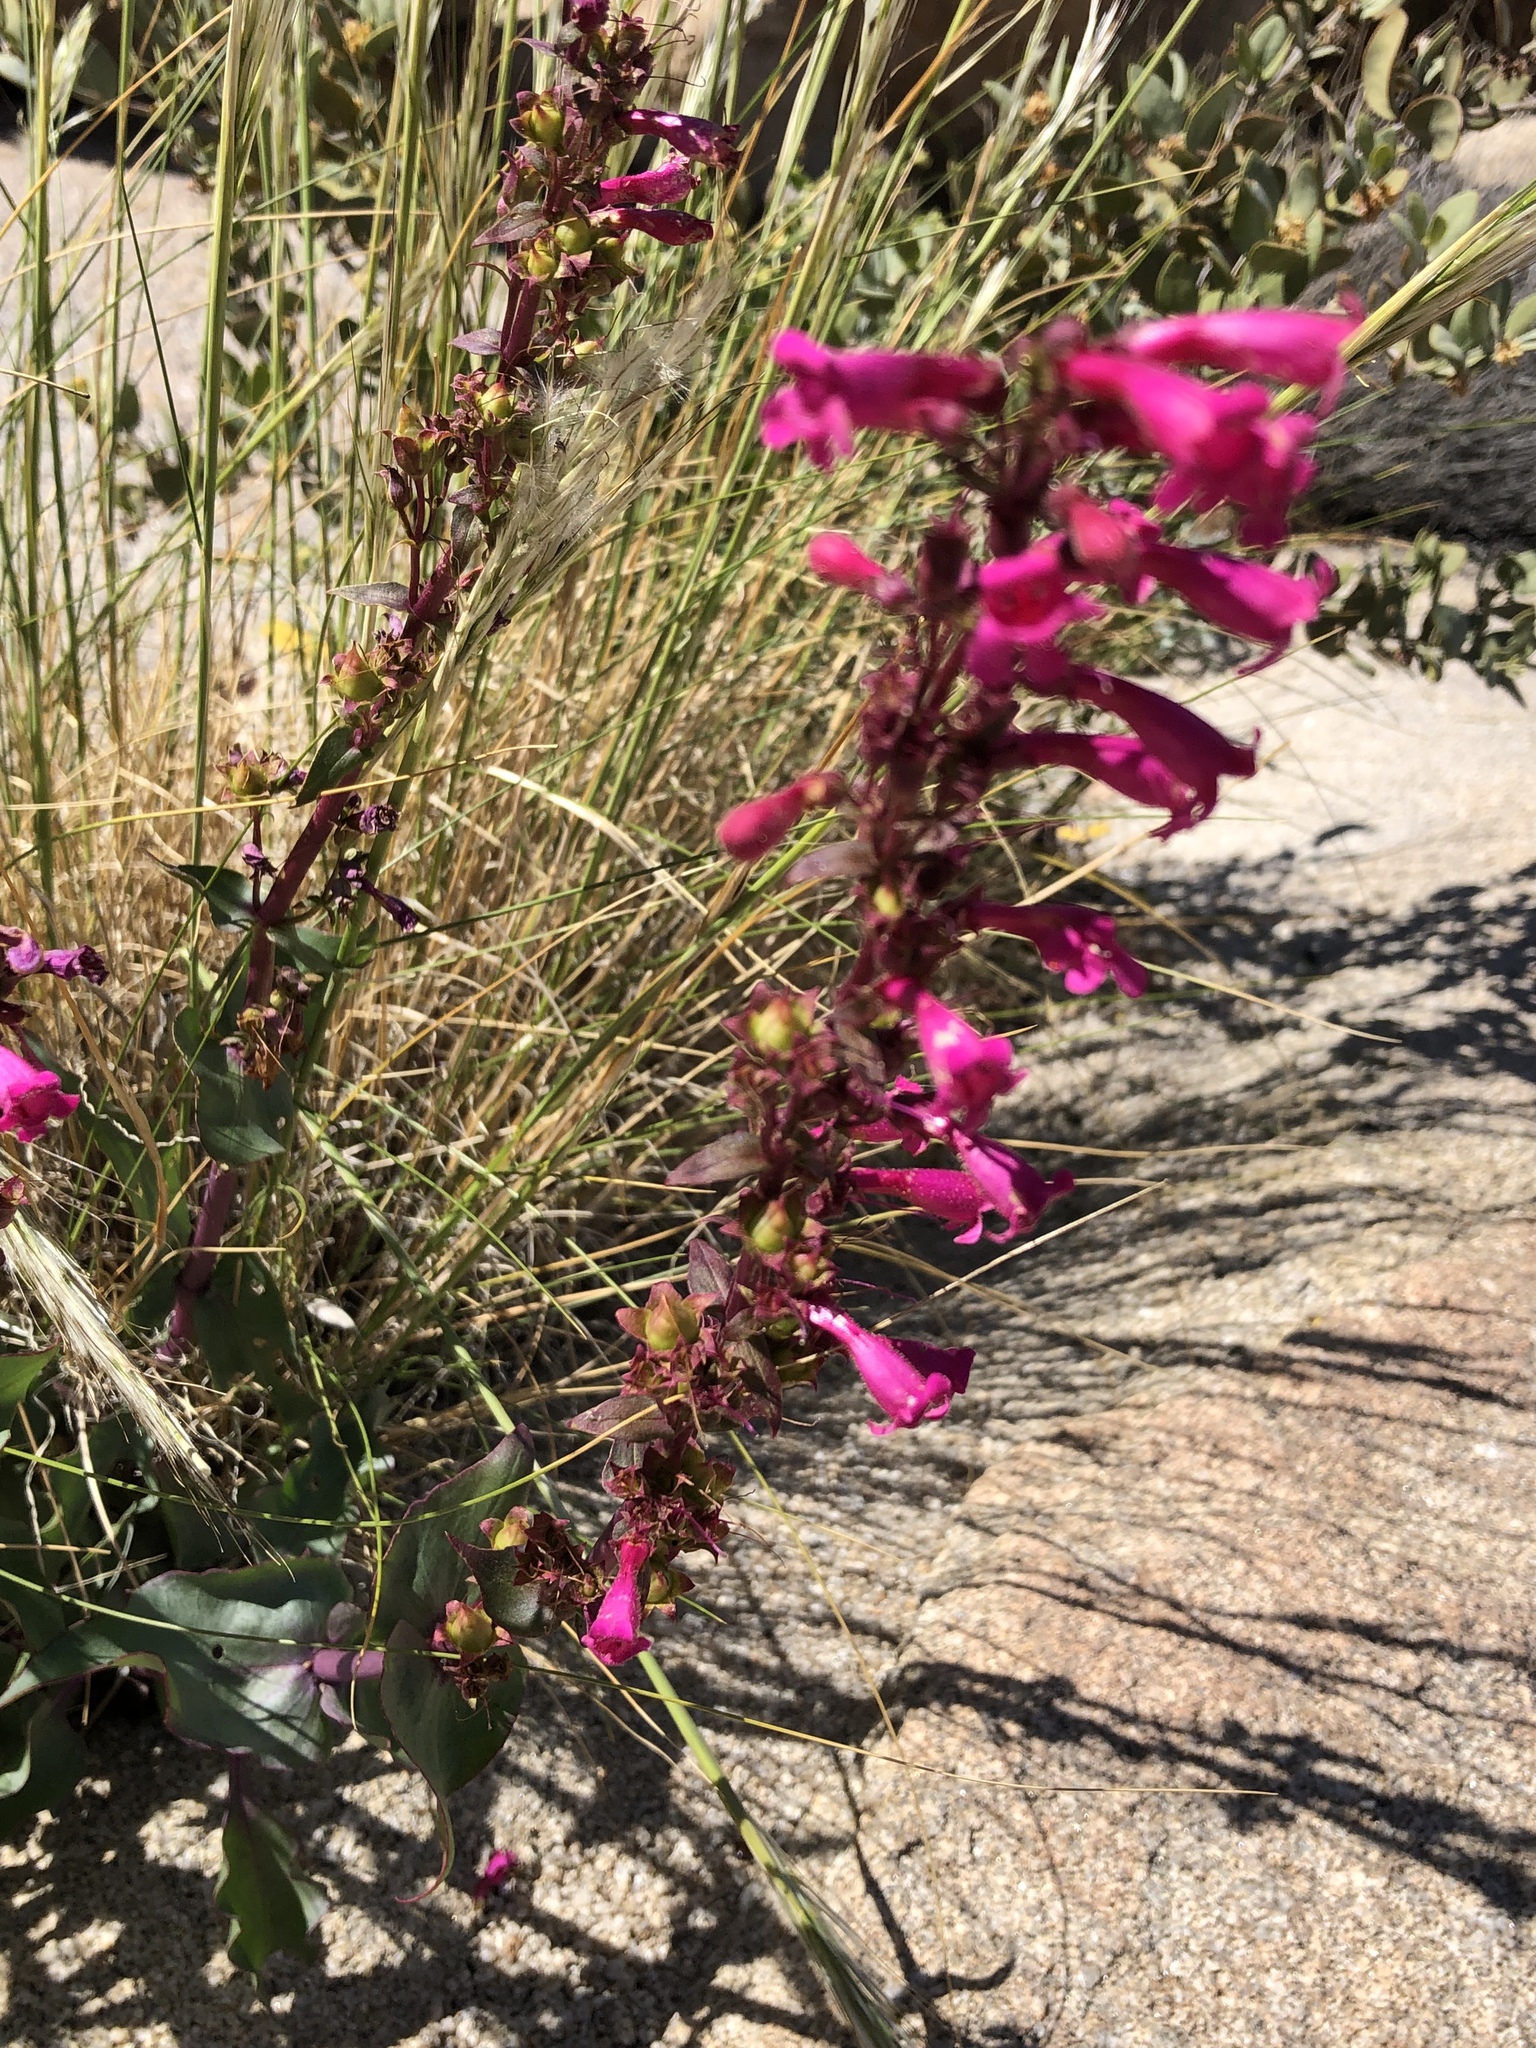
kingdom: Plantae
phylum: Tracheophyta
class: Magnoliopsida
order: Lamiales
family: Plantaginaceae
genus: Penstemon
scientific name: Penstemon clevelandii
